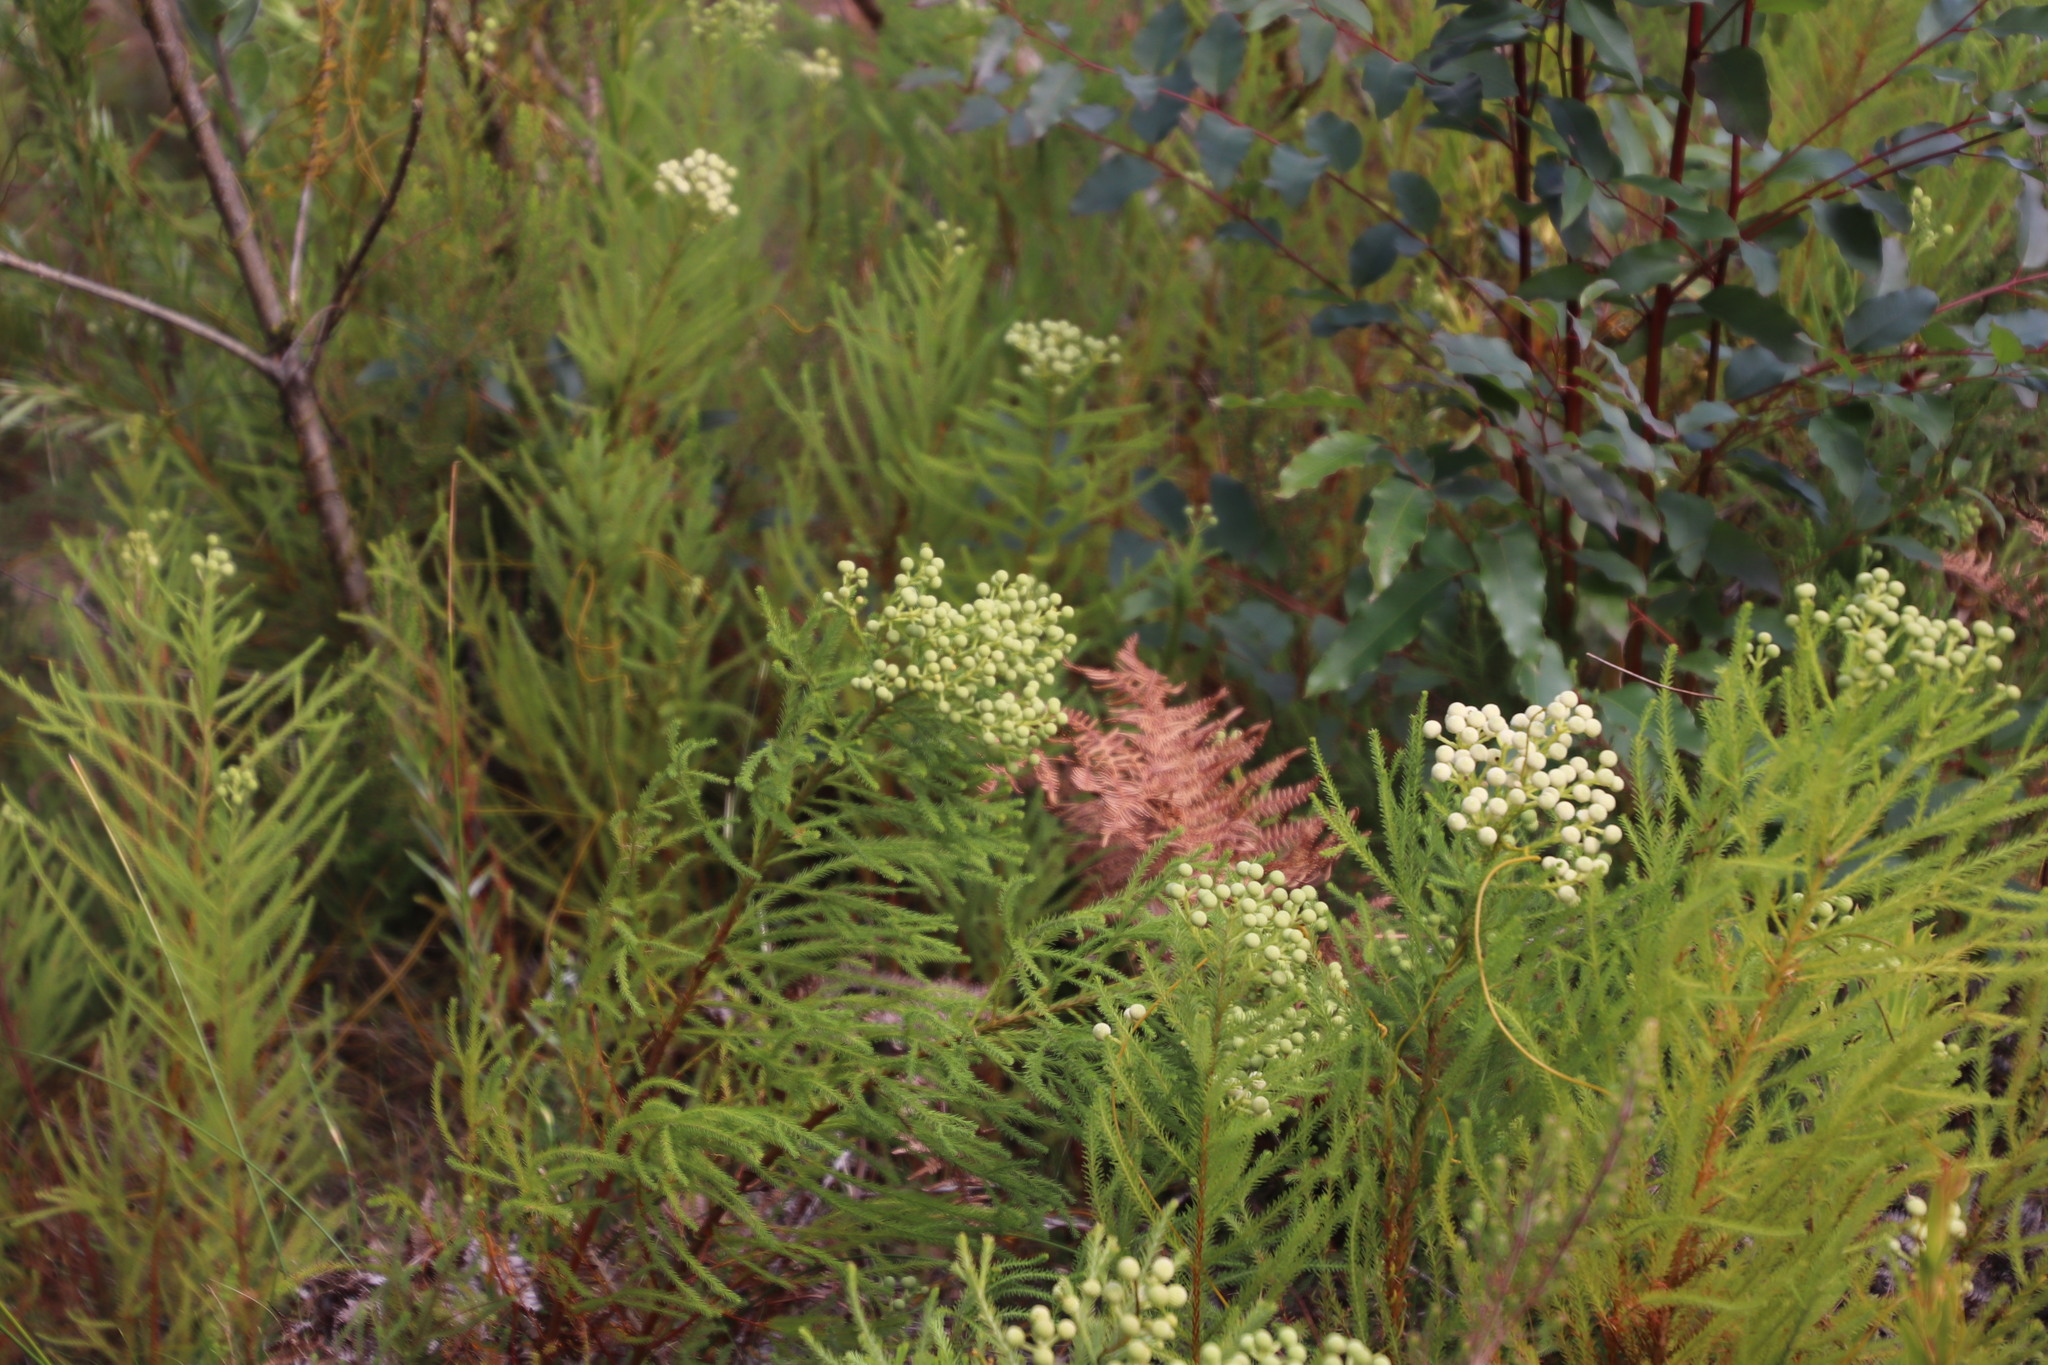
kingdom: Plantae
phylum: Tracheophyta
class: Magnoliopsida
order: Bruniales
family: Bruniaceae
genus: Berzelia
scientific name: Berzelia lanuginosa
